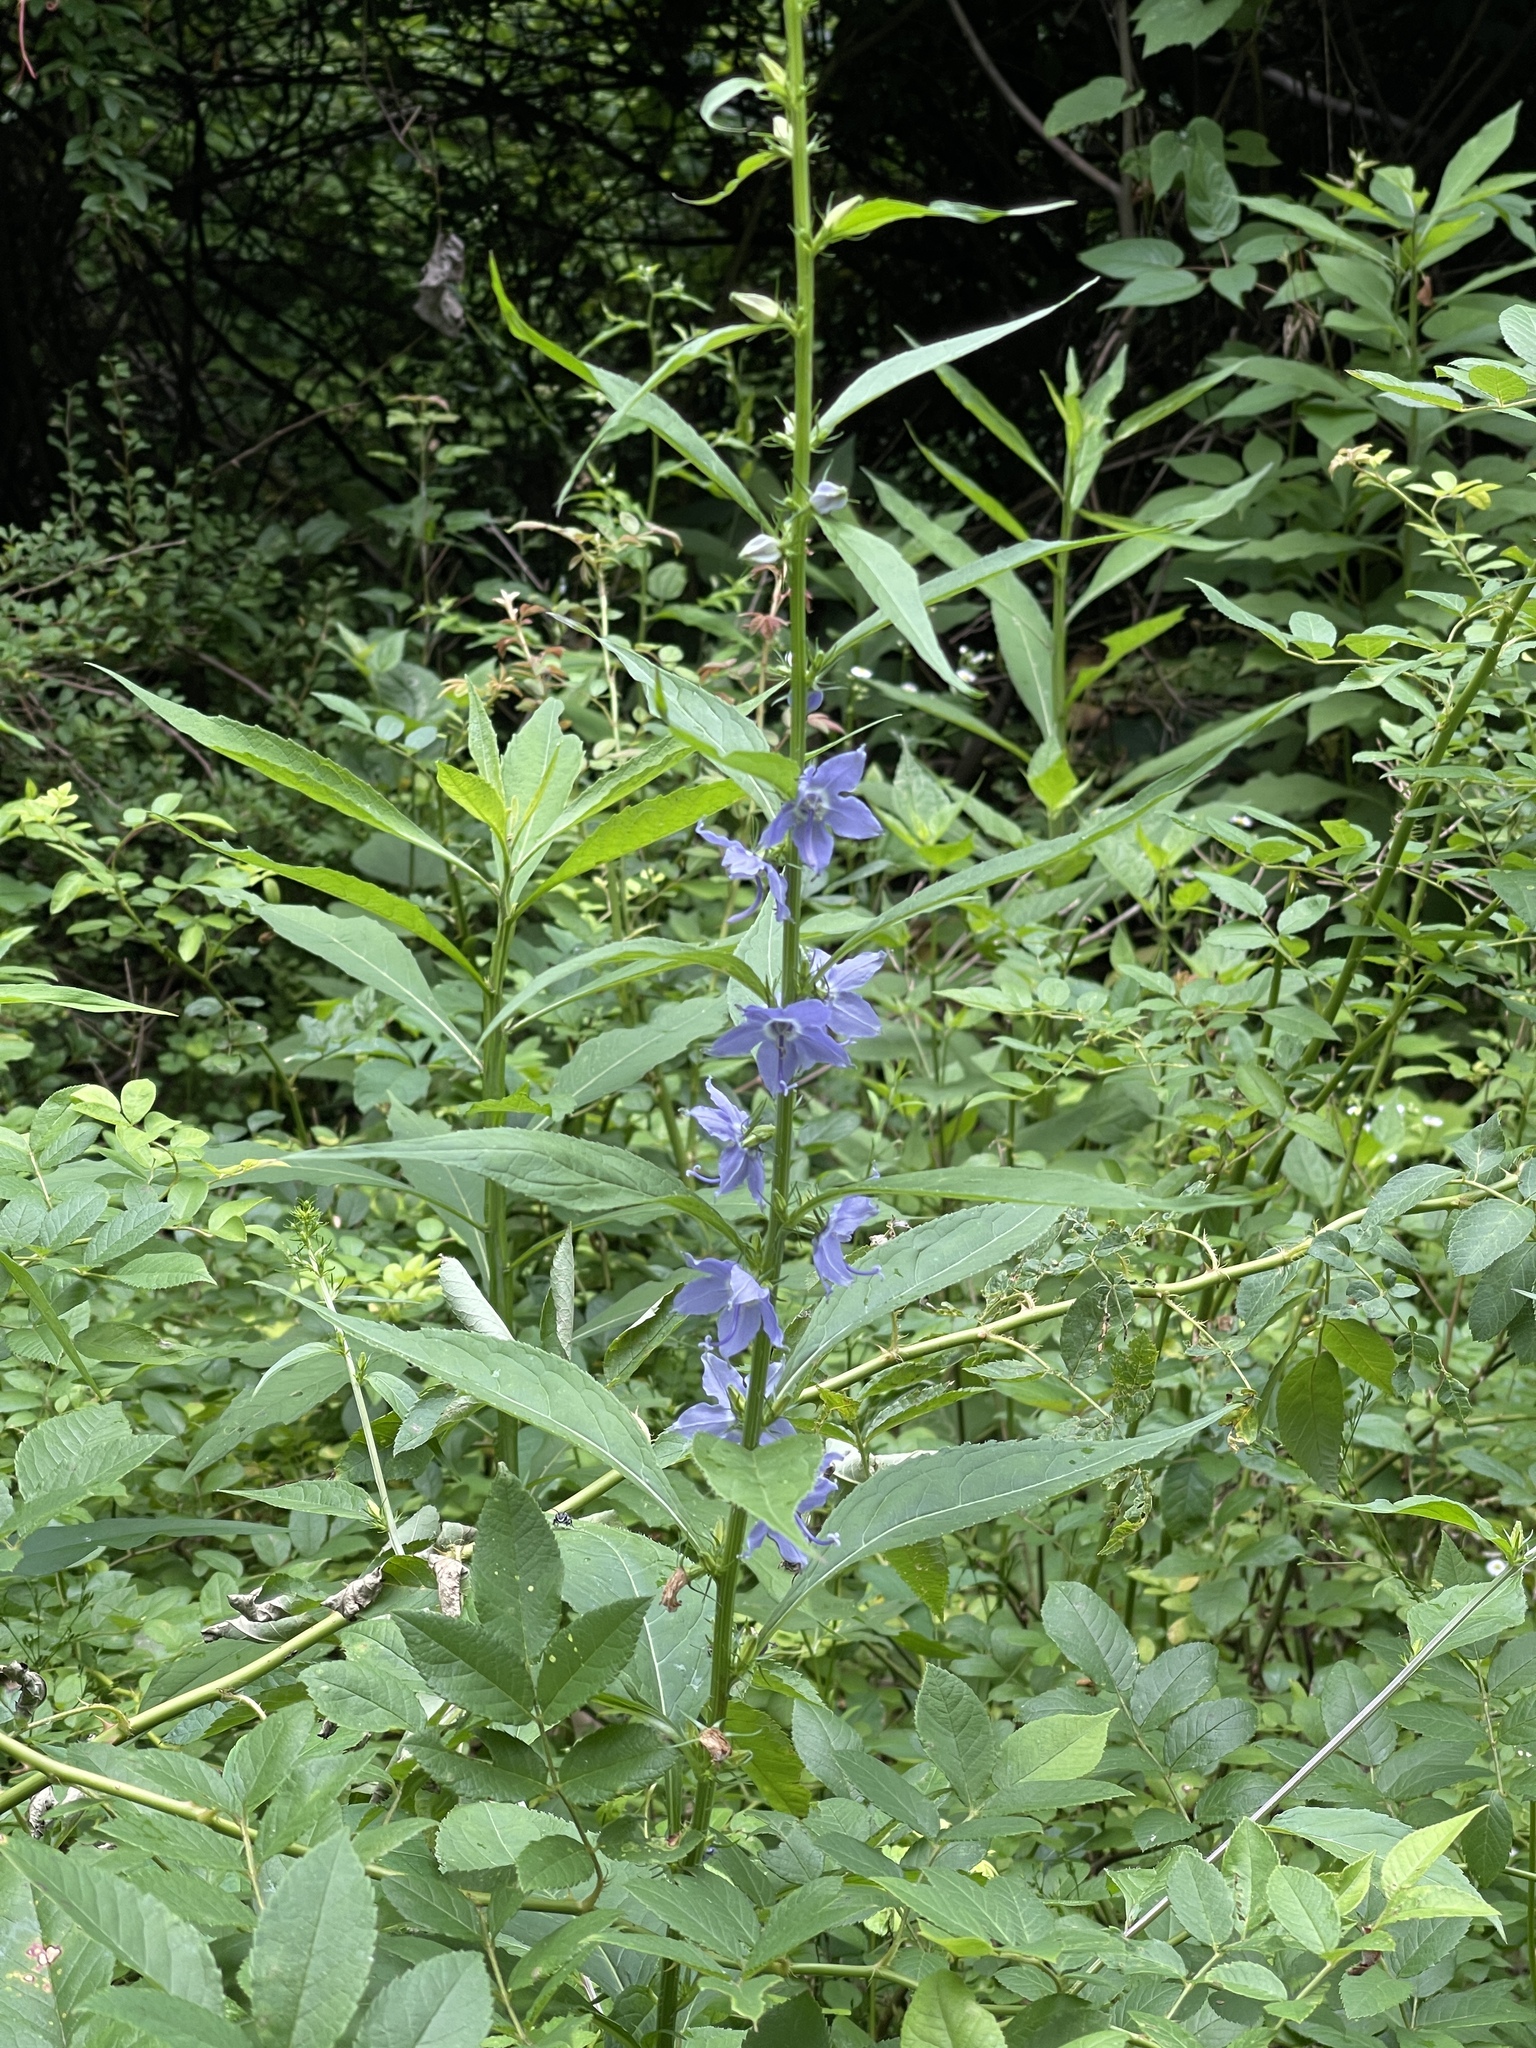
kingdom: Plantae
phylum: Tracheophyta
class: Magnoliopsida
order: Asterales
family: Campanulaceae
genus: Campanulastrum
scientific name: Campanulastrum americanum
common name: American bellflower
